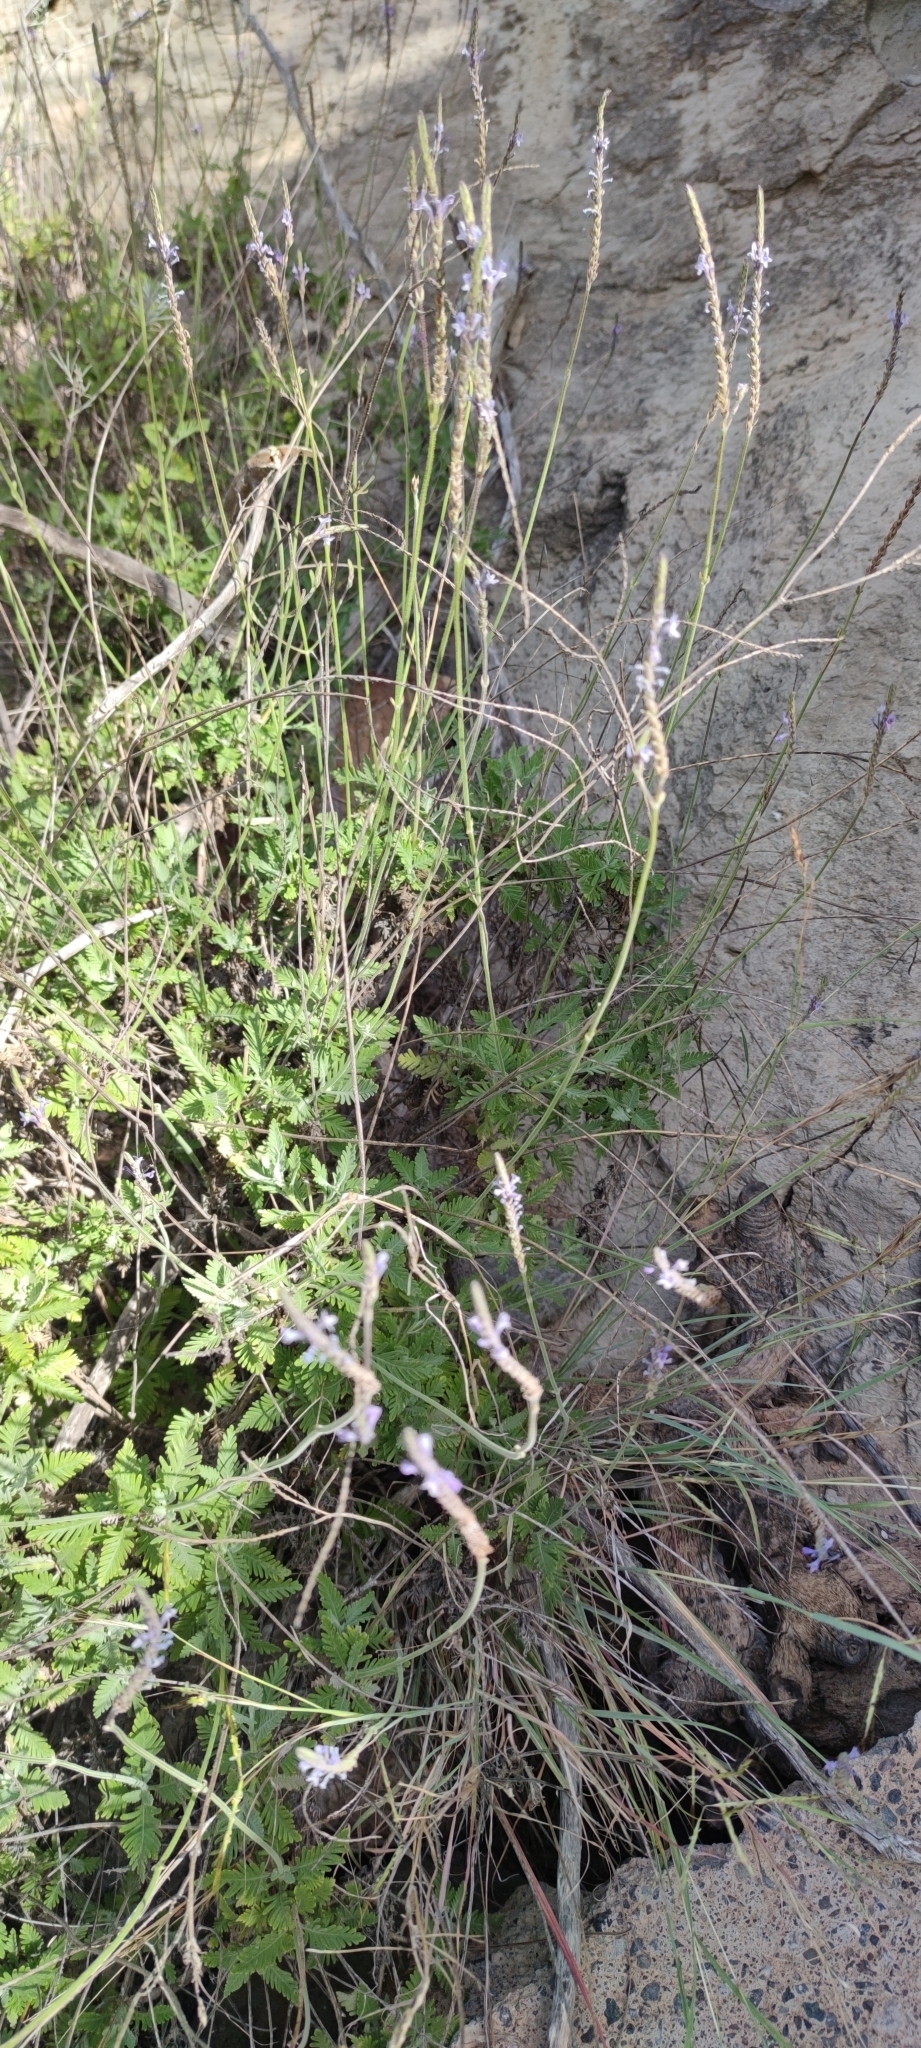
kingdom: Plantae
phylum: Tracheophyta
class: Magnoliopsida
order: Lamiales
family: Lamiaceae
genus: Lavandula
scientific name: Lavandula minutolii
